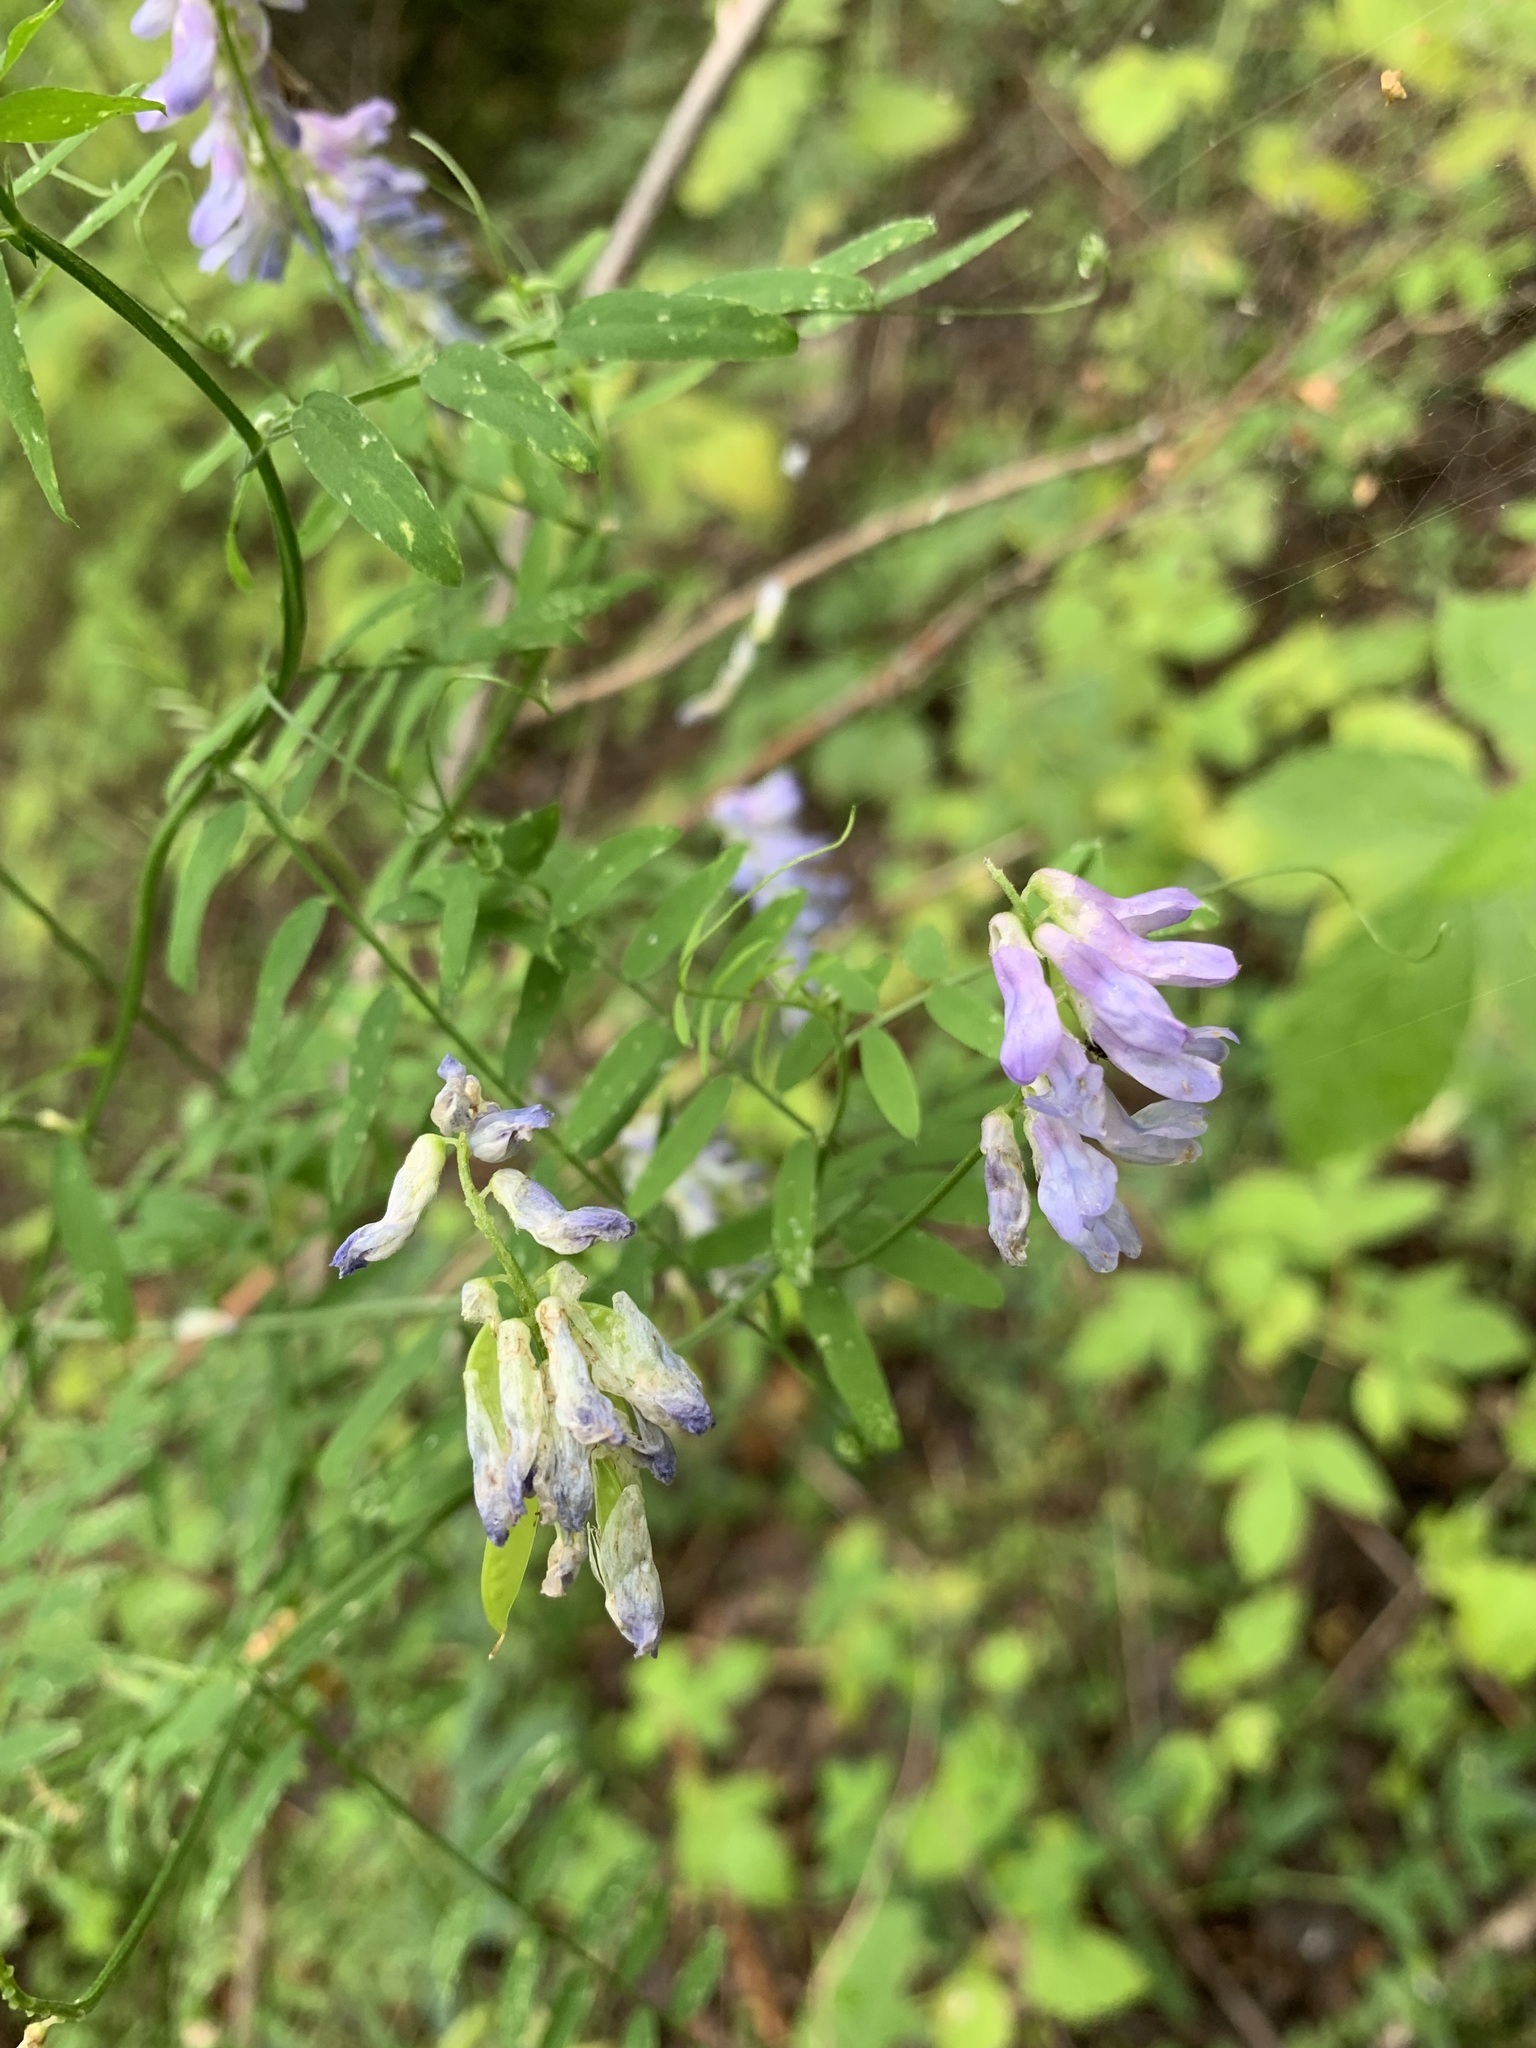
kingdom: Plantae
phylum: Tracheophyta
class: Magnoliopsida
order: Fabales
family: Fabaceae
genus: Vicia
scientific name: Vicia cracca
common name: Bird vetch
